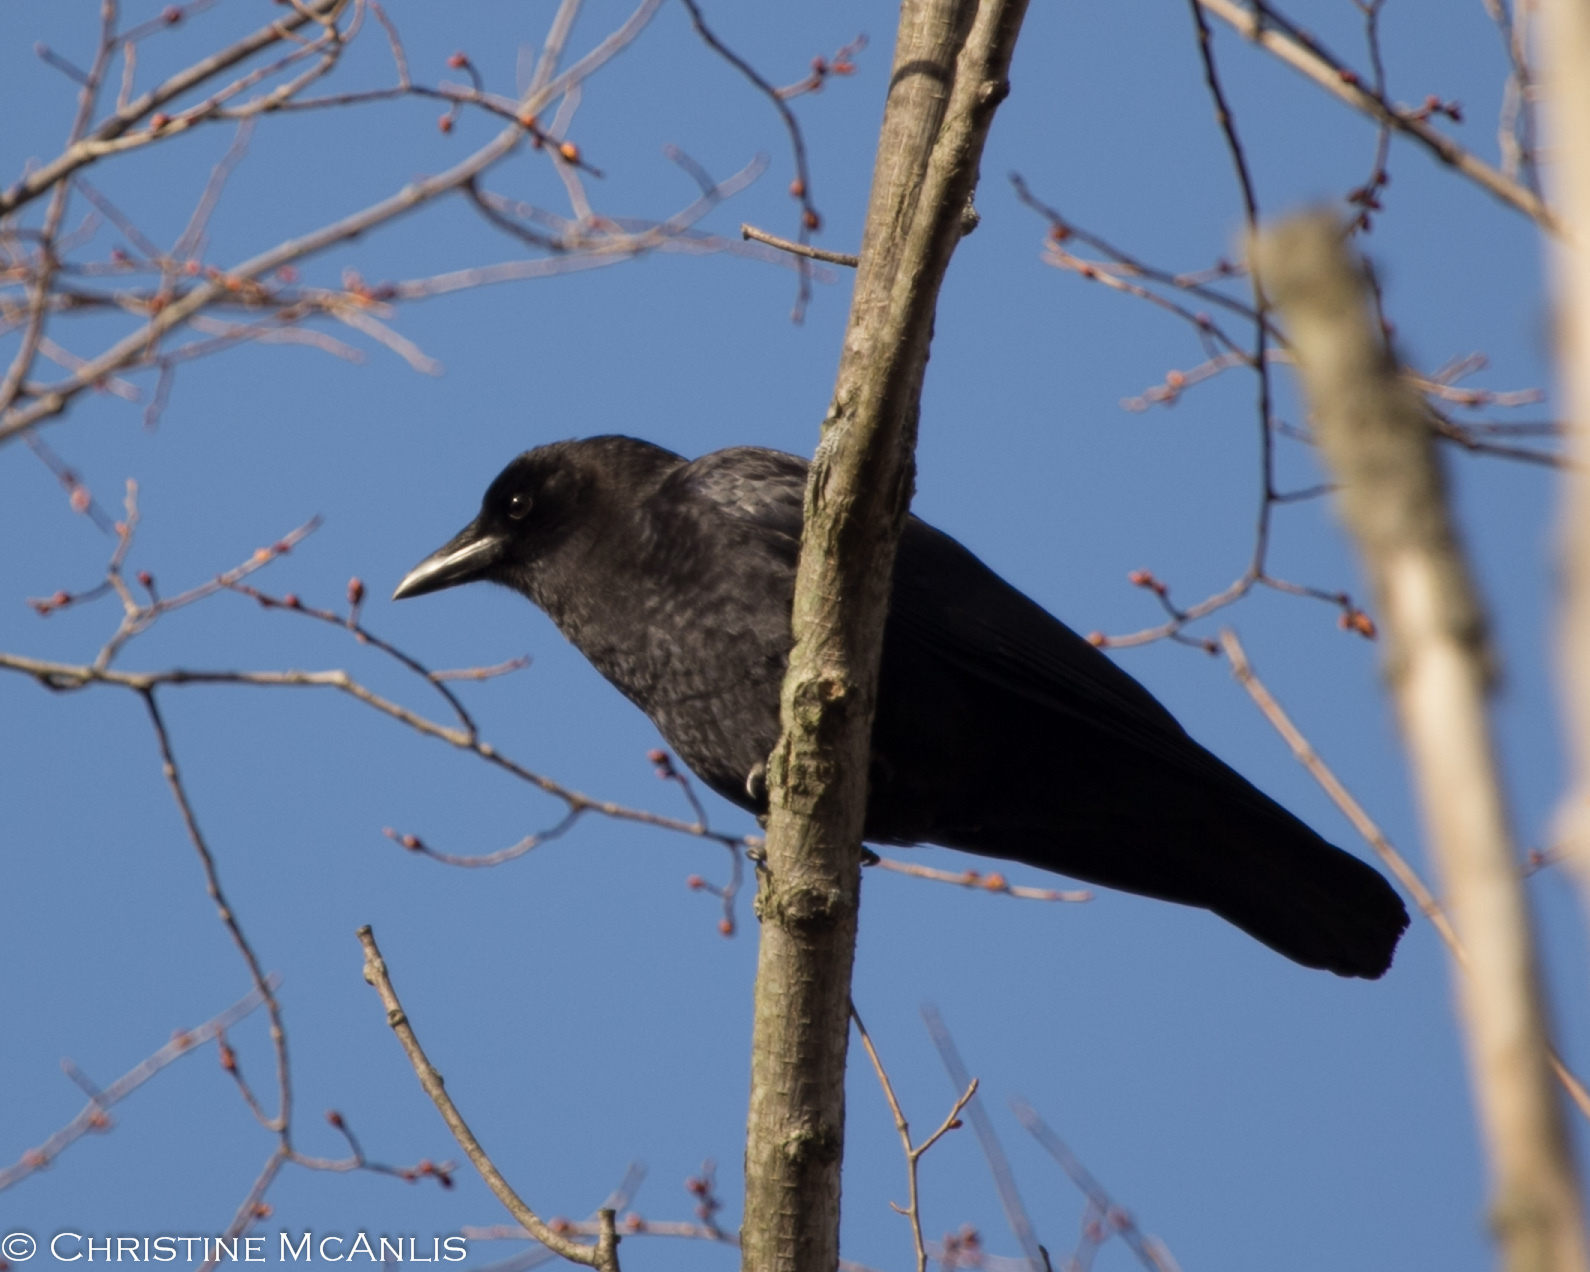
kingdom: Animalia
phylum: Chordata
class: Aves
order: Passeriformes
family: Corvidae
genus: Corvus
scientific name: Corvus brachyrhynchos
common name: American crow
